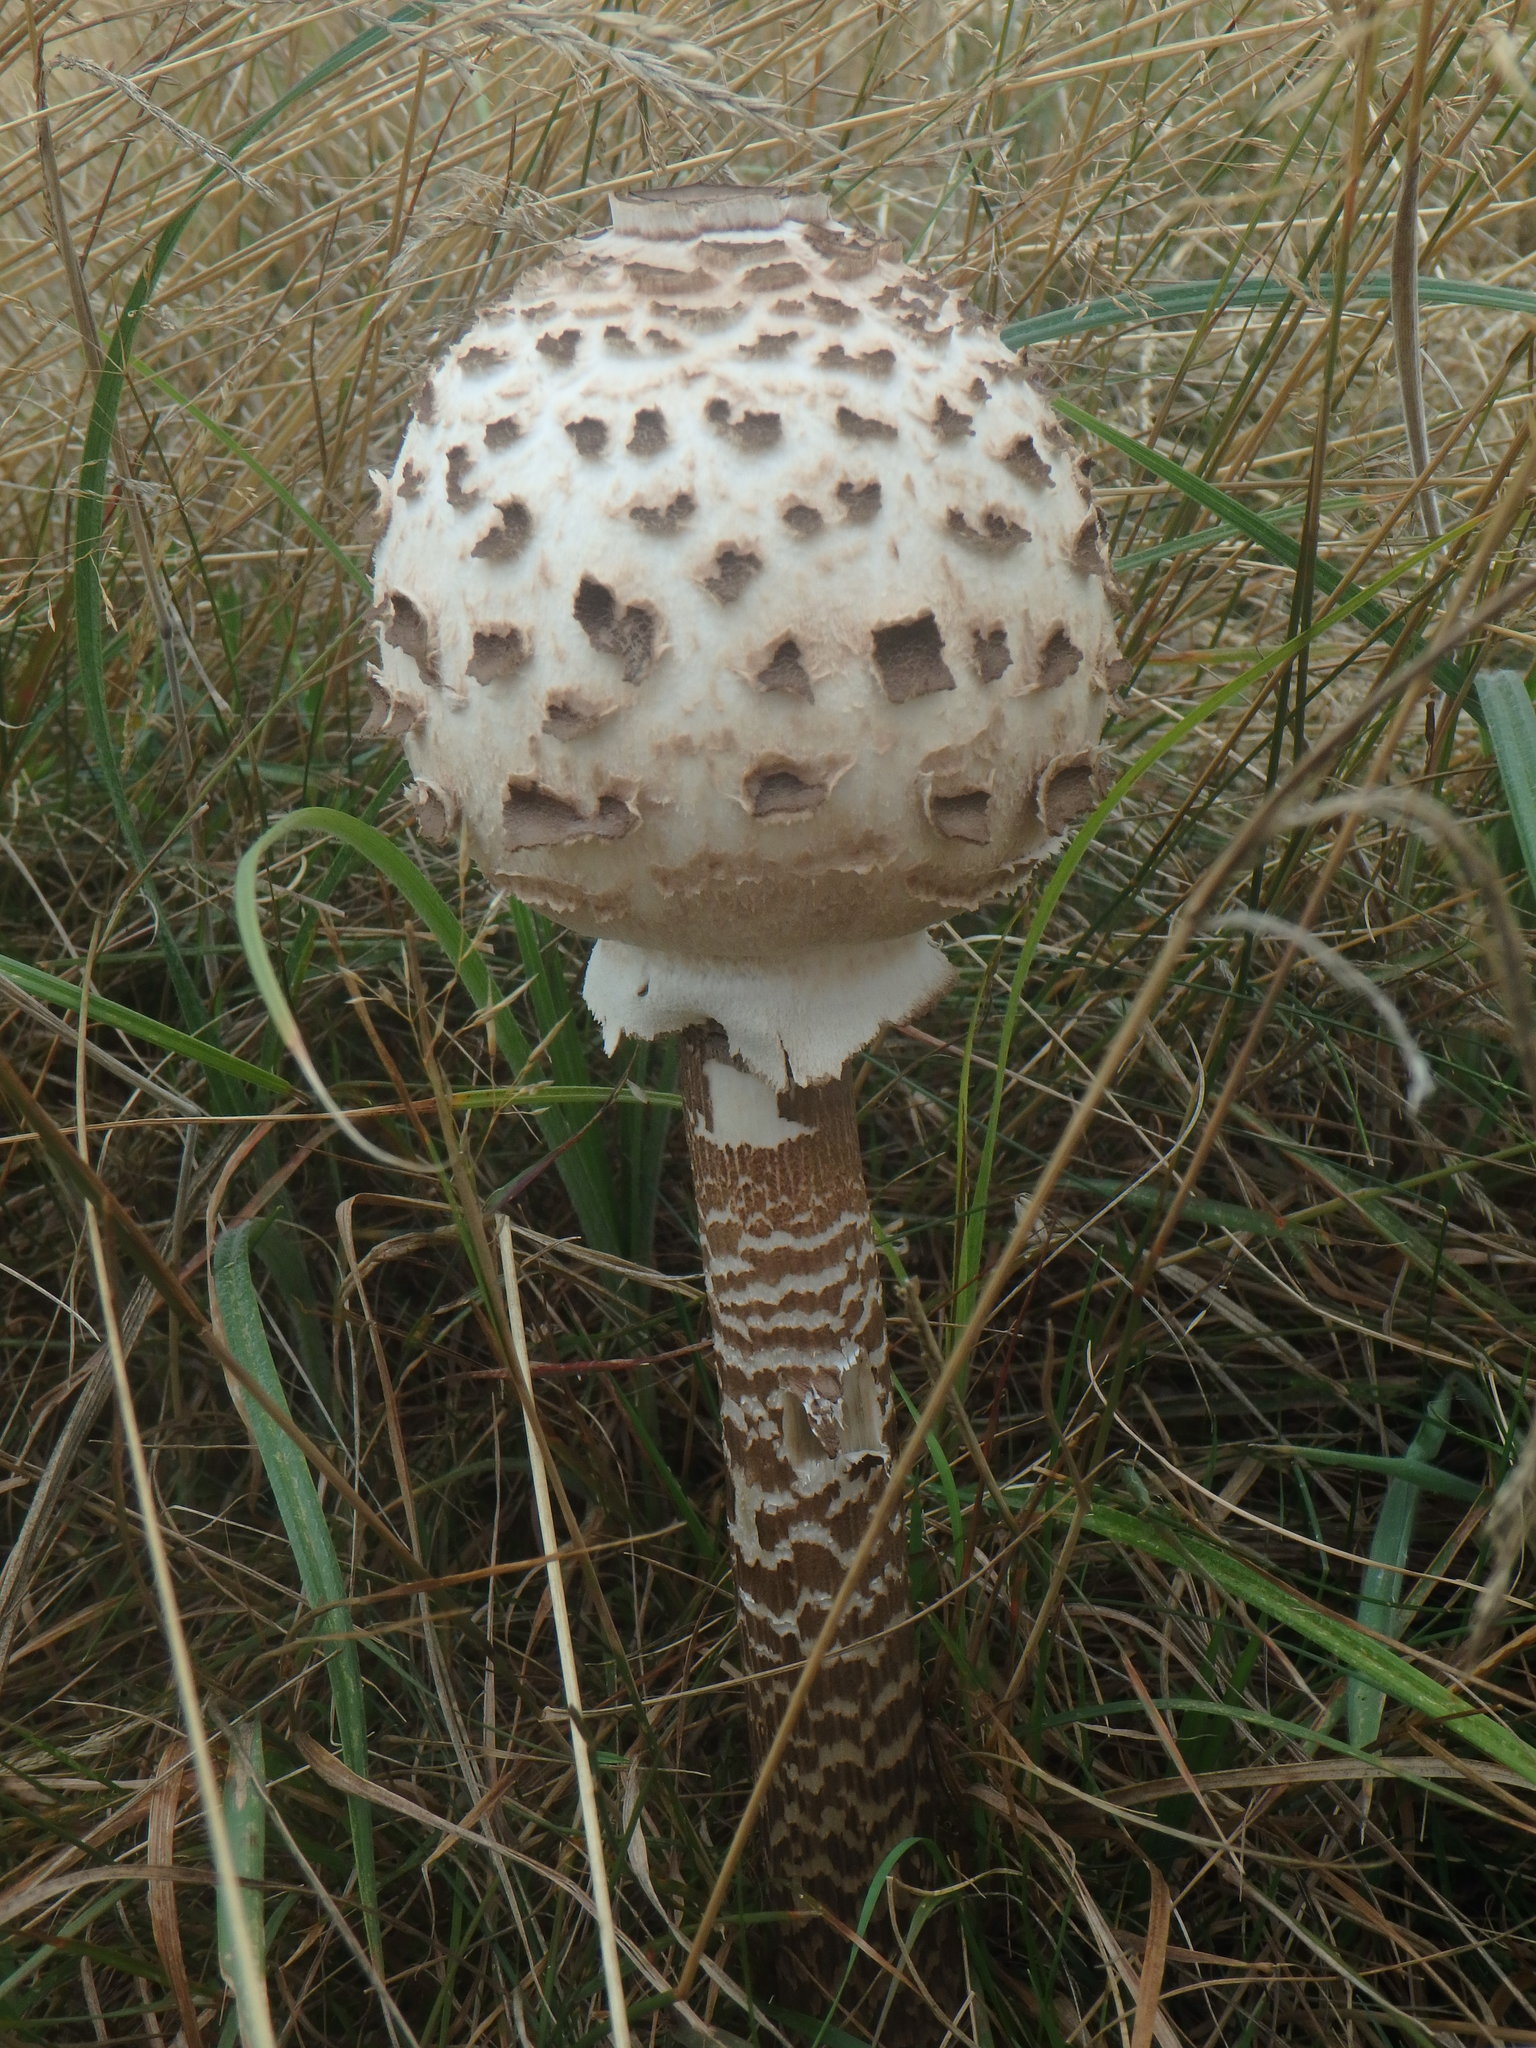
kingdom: Fungi
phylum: Basidiomycota
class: Agaricomycetes
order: Agaricales
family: Agaricaceae
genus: Macrolepiota
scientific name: Macrolepiota procera
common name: Parasol
